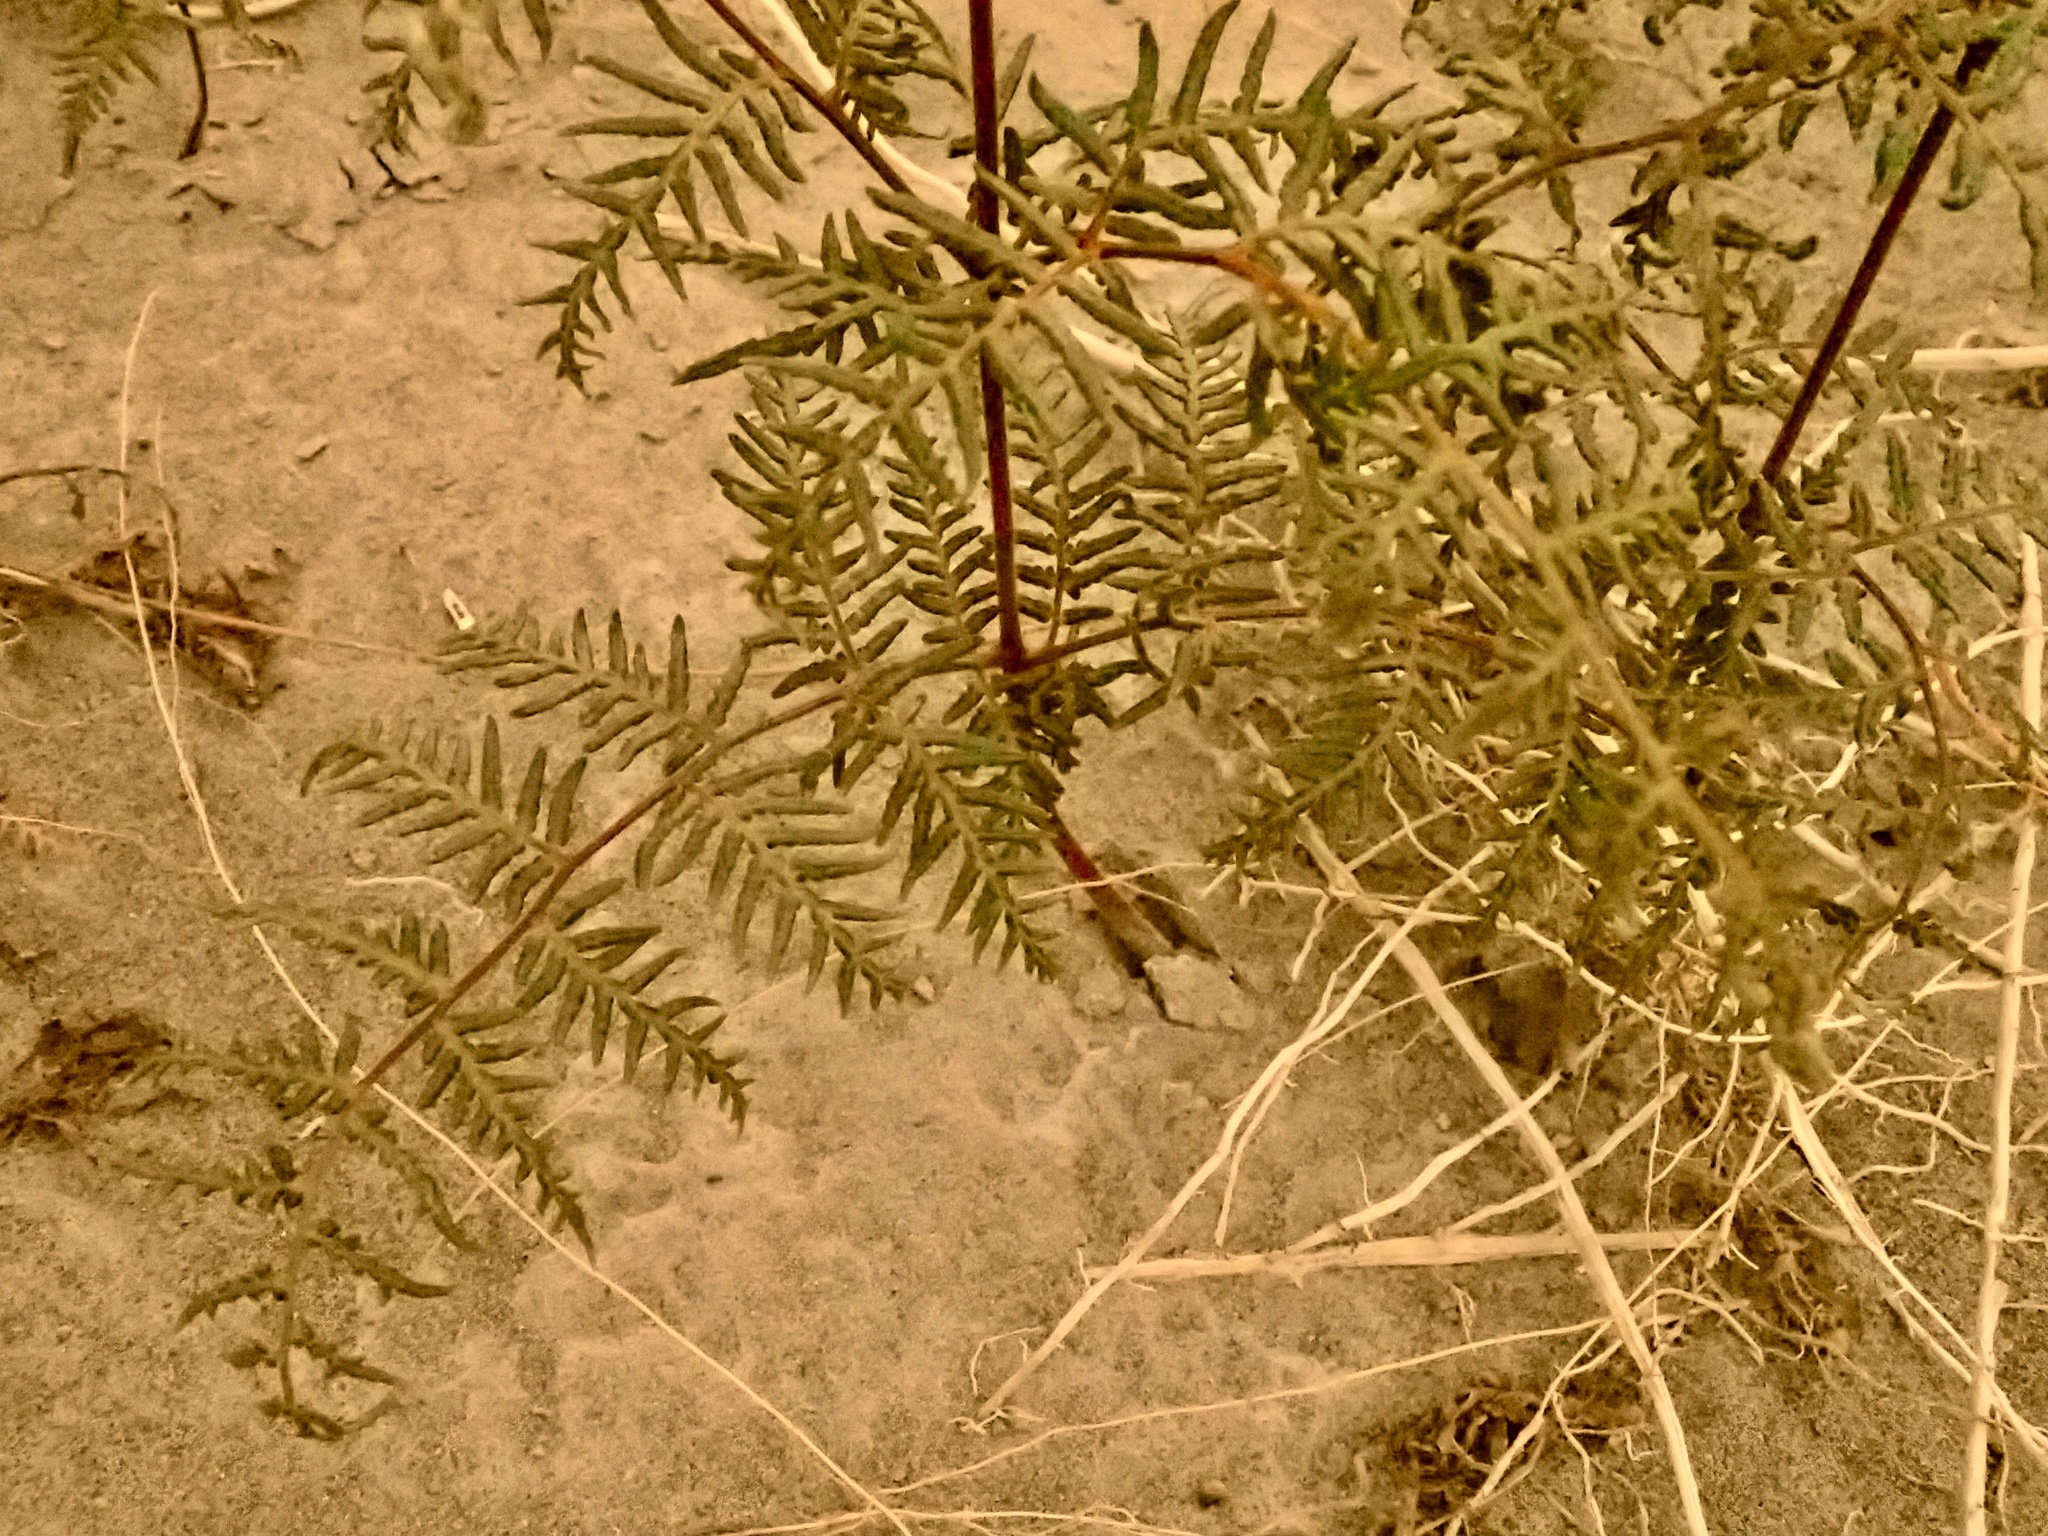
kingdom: Plantae
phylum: Tracheophyta
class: Polypodiopsida
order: Polypodiales
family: Dennstaedtiaceae
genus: Pteridium
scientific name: Pteridium esculentum
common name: Bracken fern
